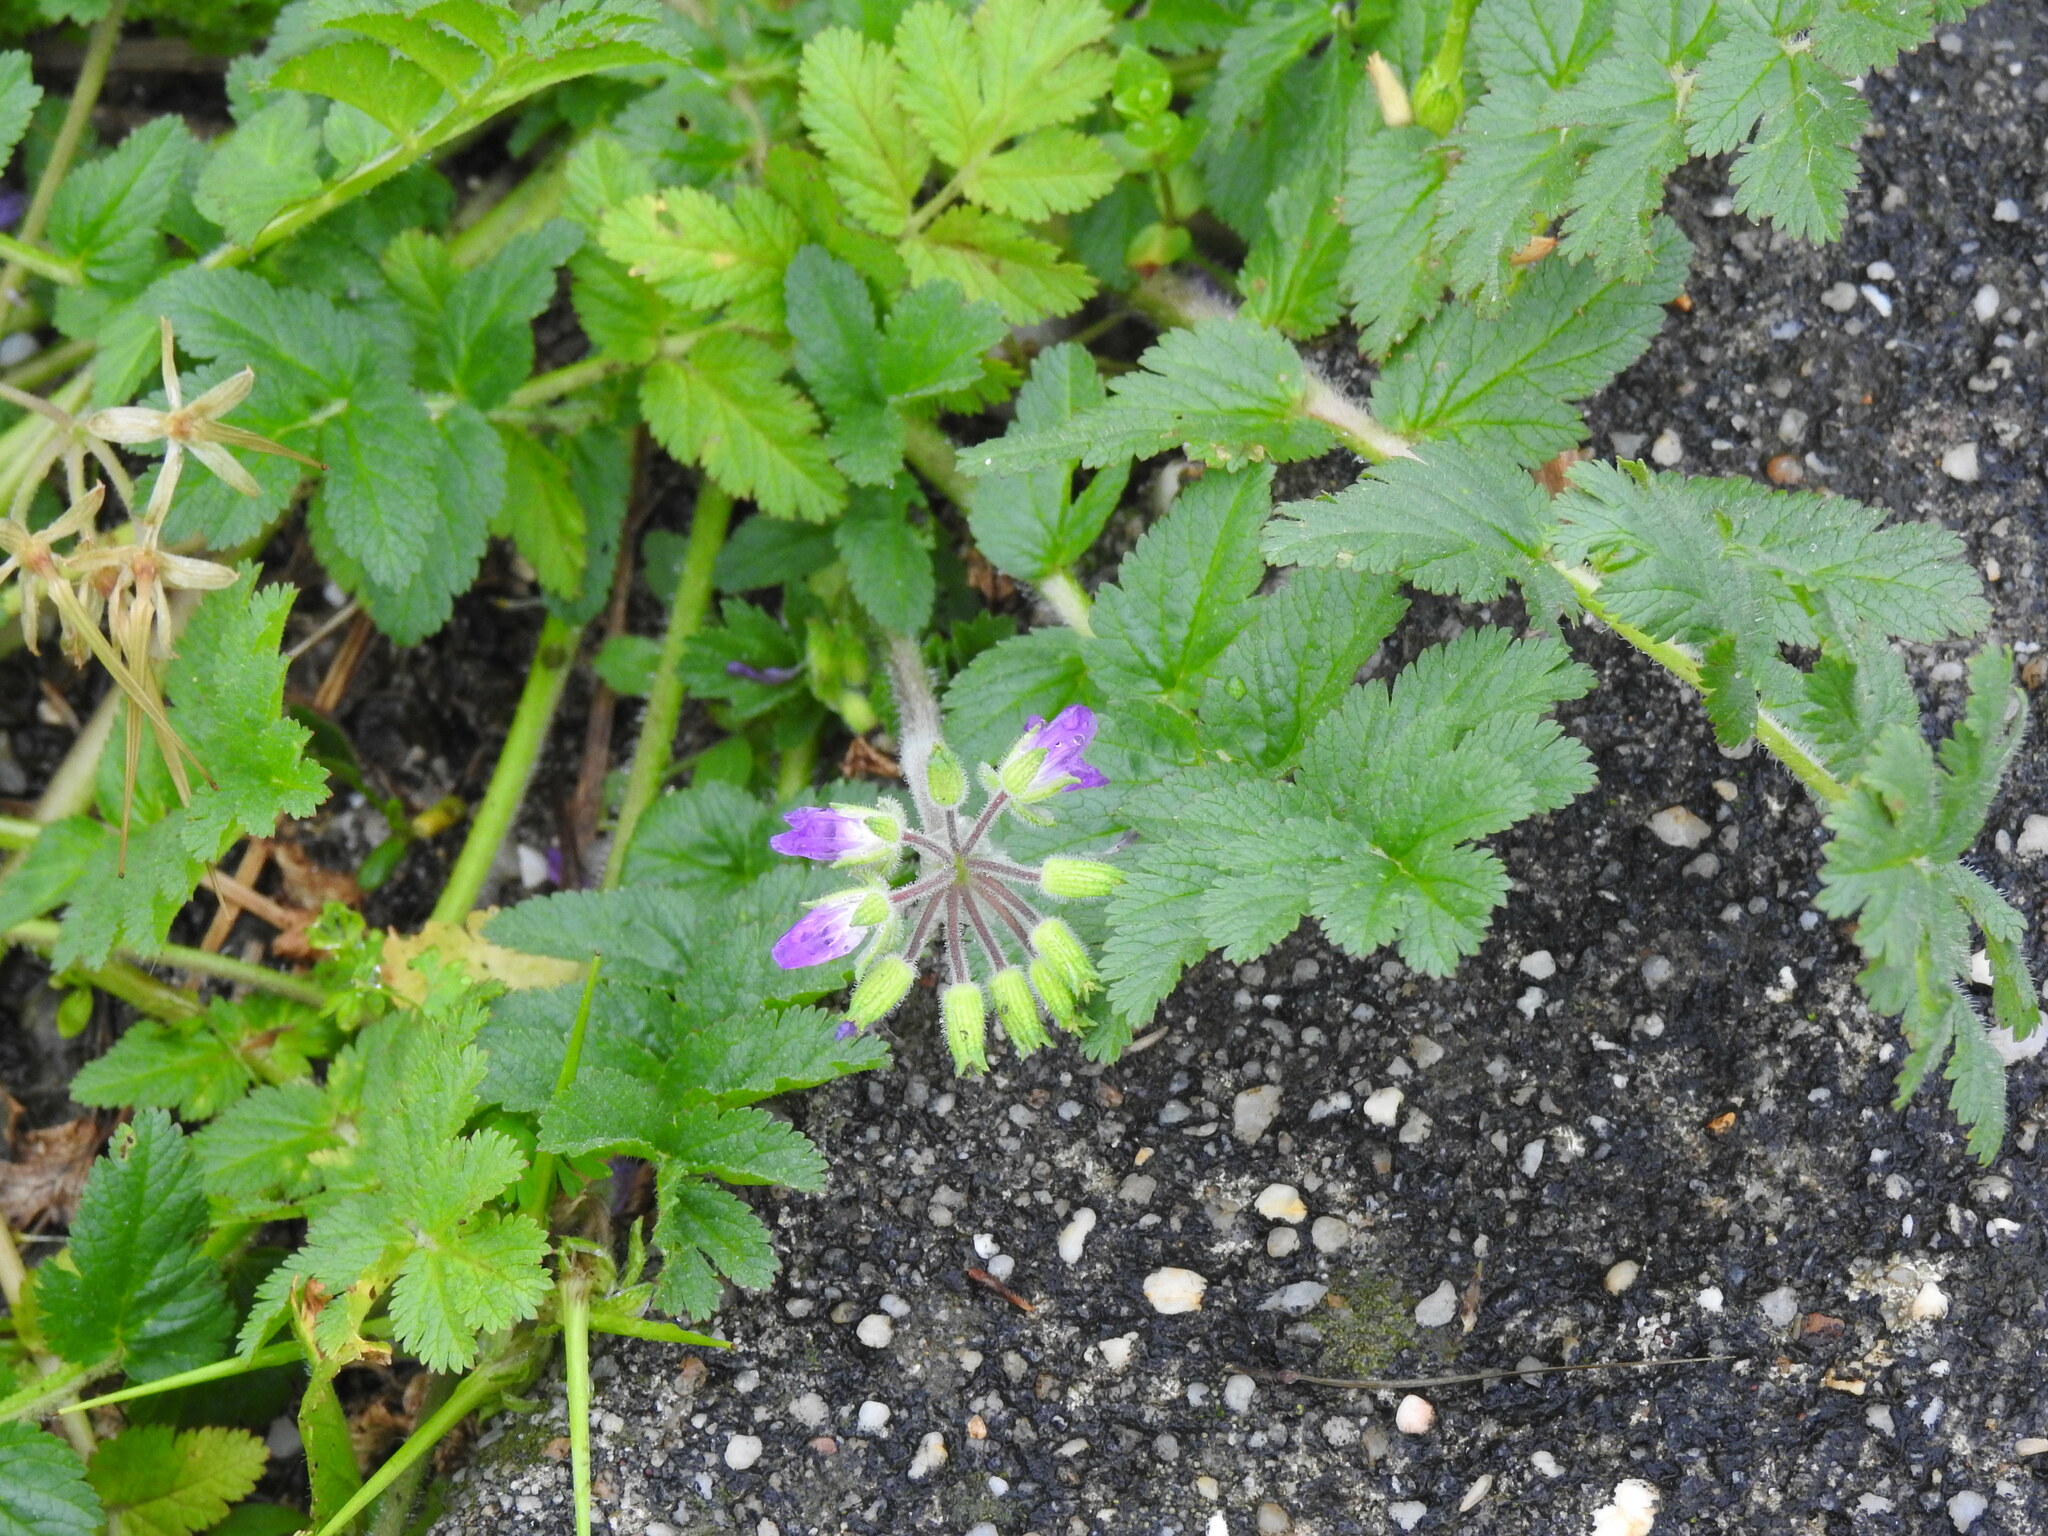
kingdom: Plantae
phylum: Tracheophyta
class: Magnoliopsida
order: Geraniales
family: Geraniaceae
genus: Erodium
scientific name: Erodium moschatum
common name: Musk stork's-bill
